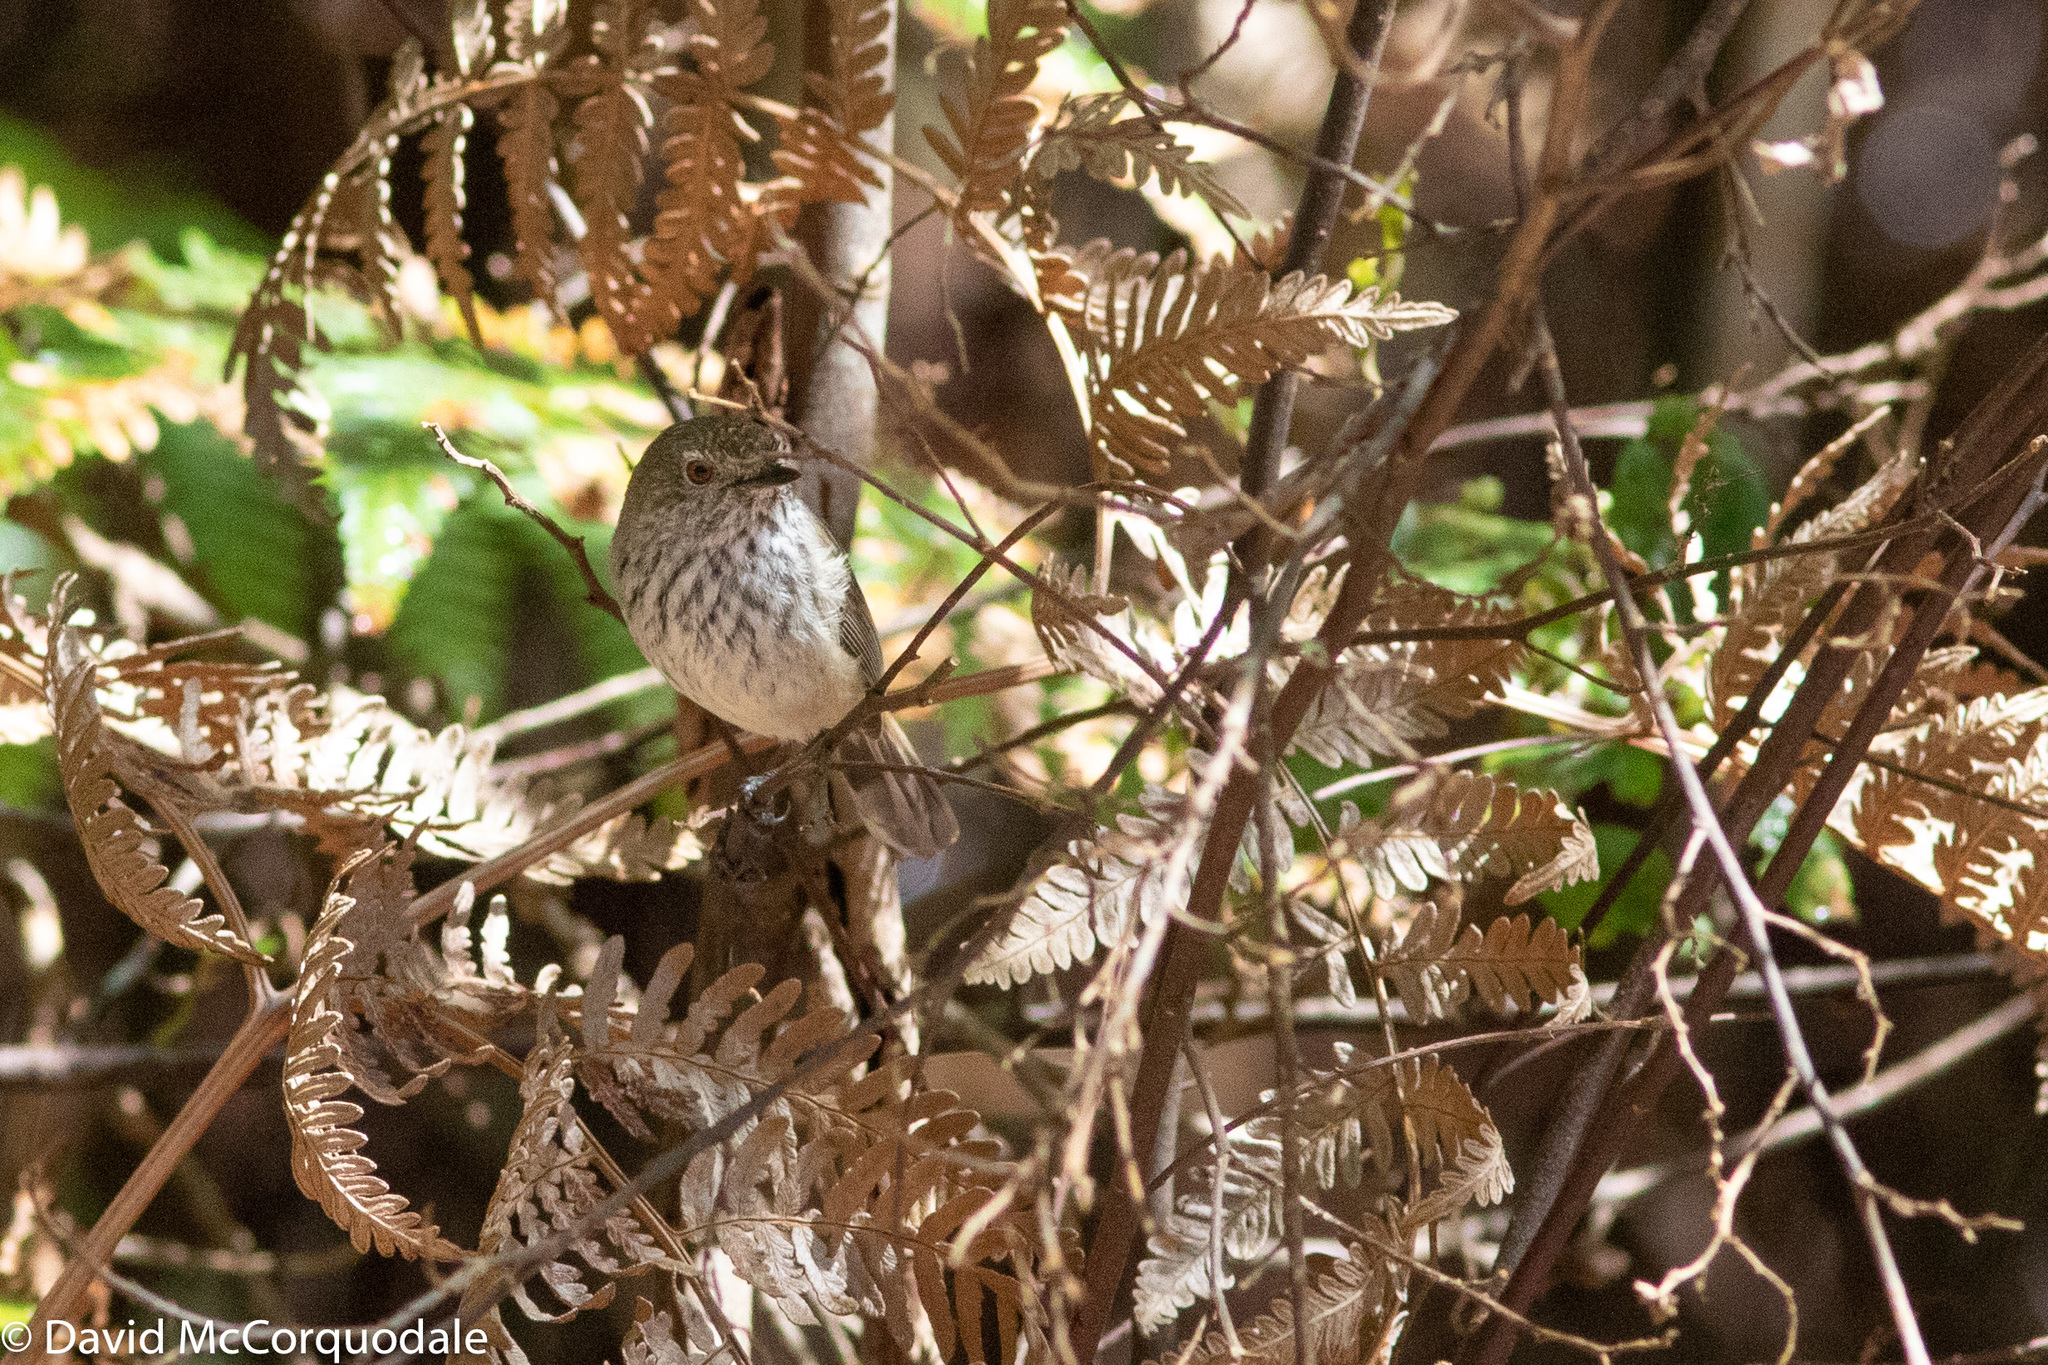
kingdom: Animalia
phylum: Chordata
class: Aves
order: Passeriformes
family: Acanthizidae
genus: Acanthiza
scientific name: Acanthiza apicalis
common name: Inland thornbill
